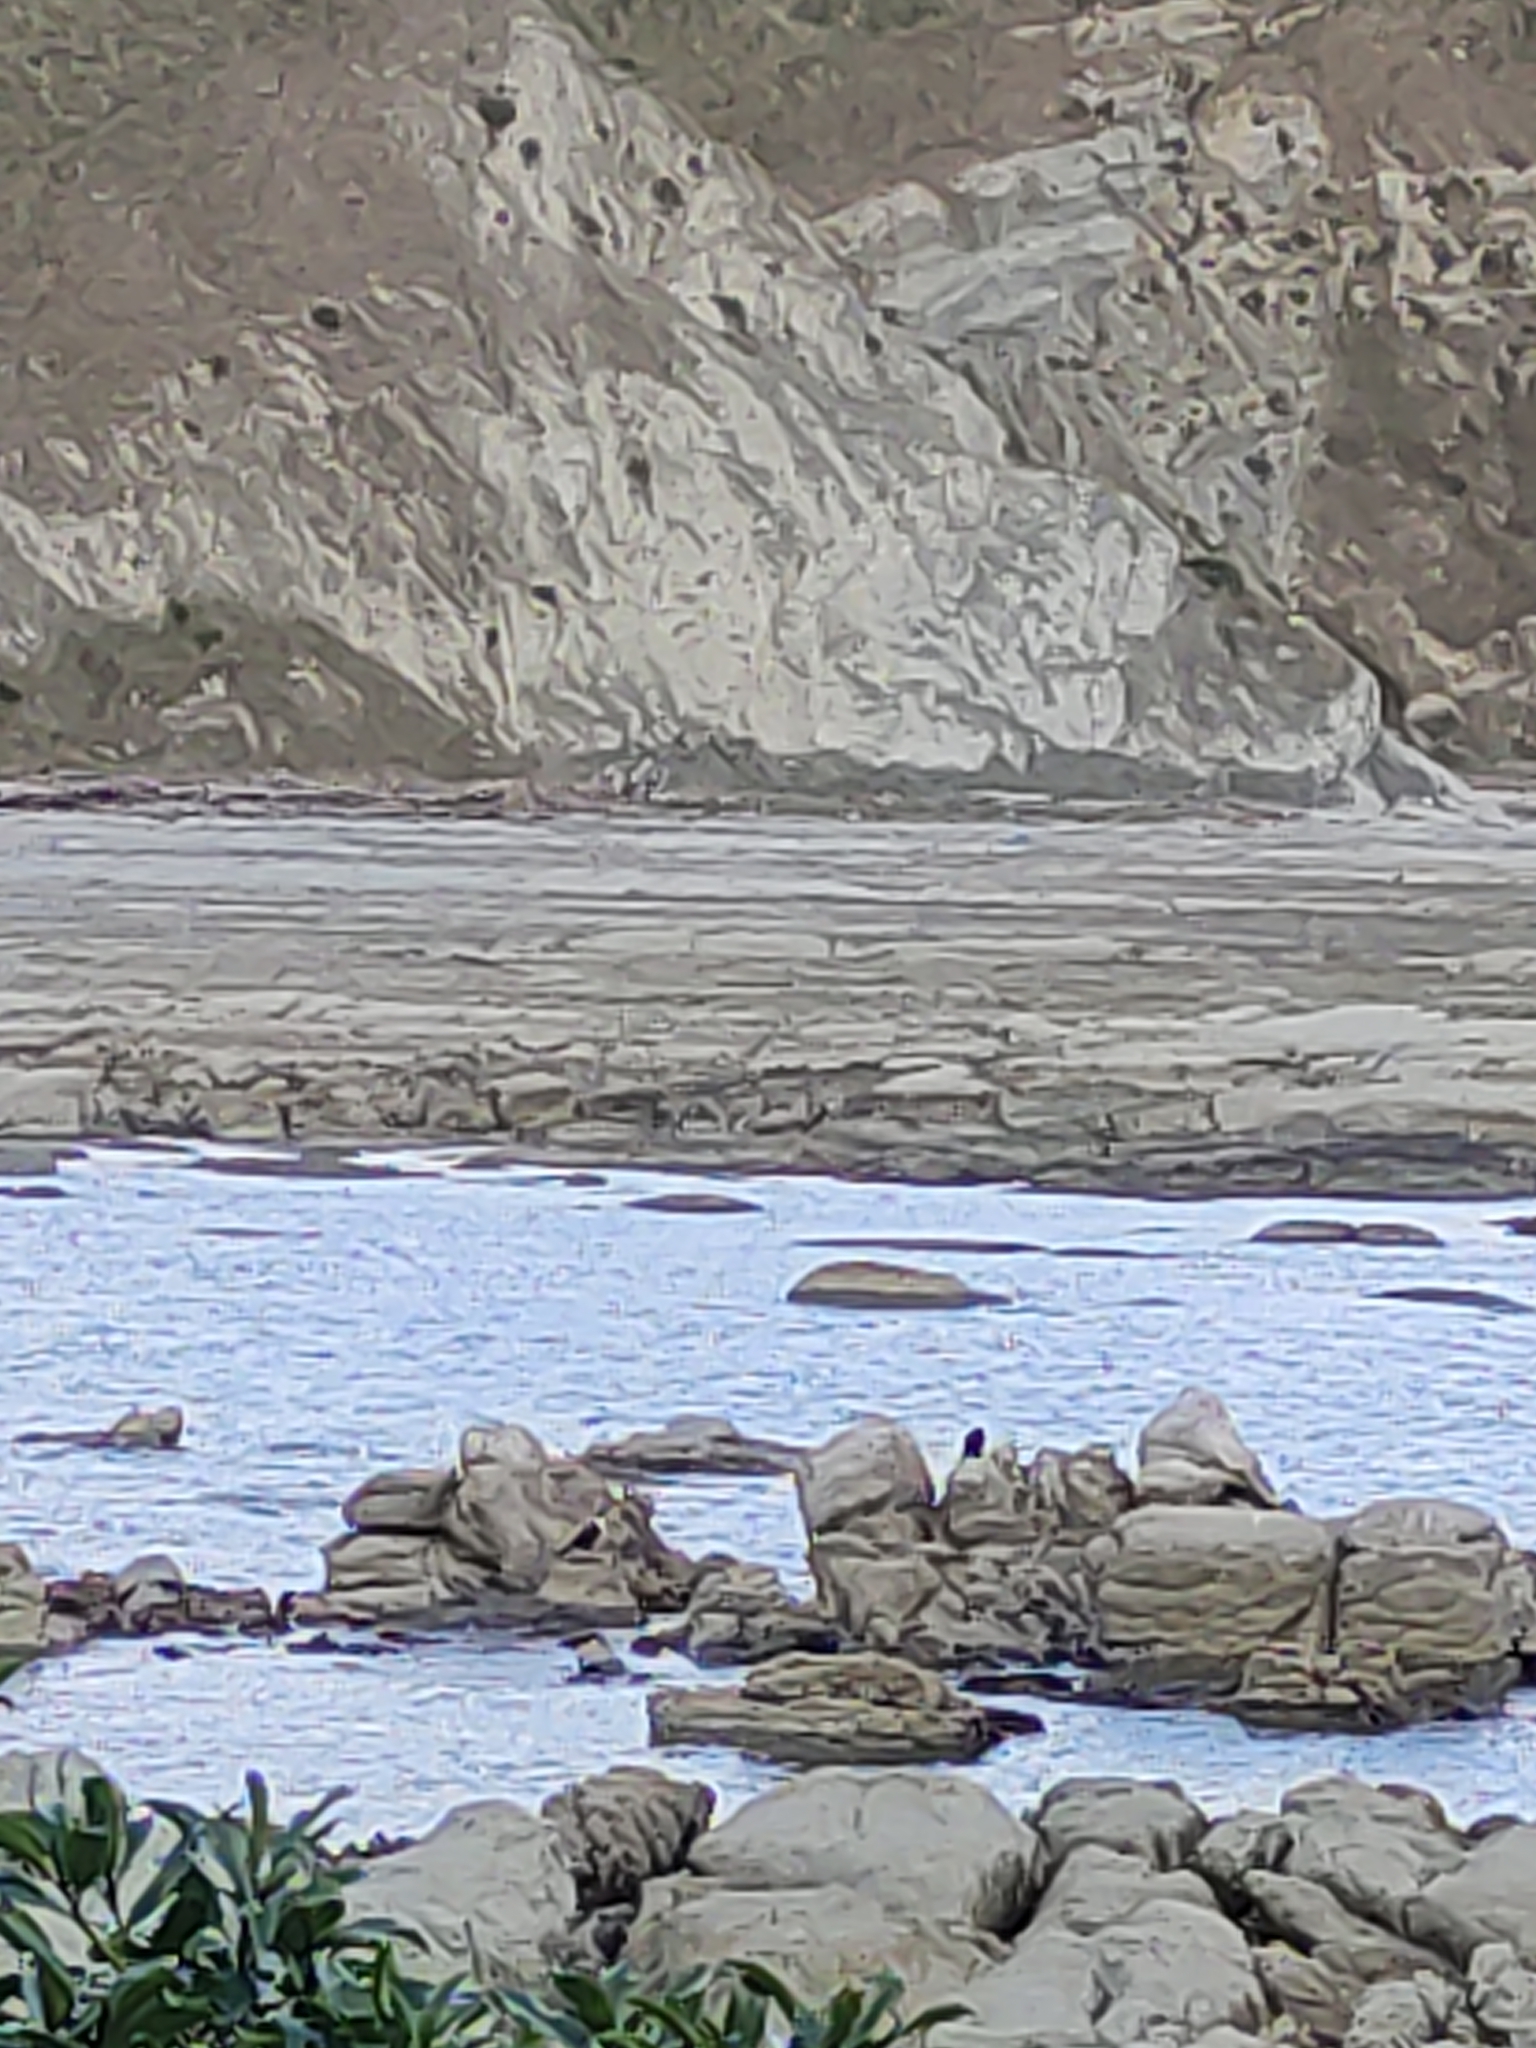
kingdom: Animalia
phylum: Chordata
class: Aves
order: Suliformes
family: Phalacrocoracidae
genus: Microcarbo
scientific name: Microcarbo melanoleucos
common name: Little pied cormorant
